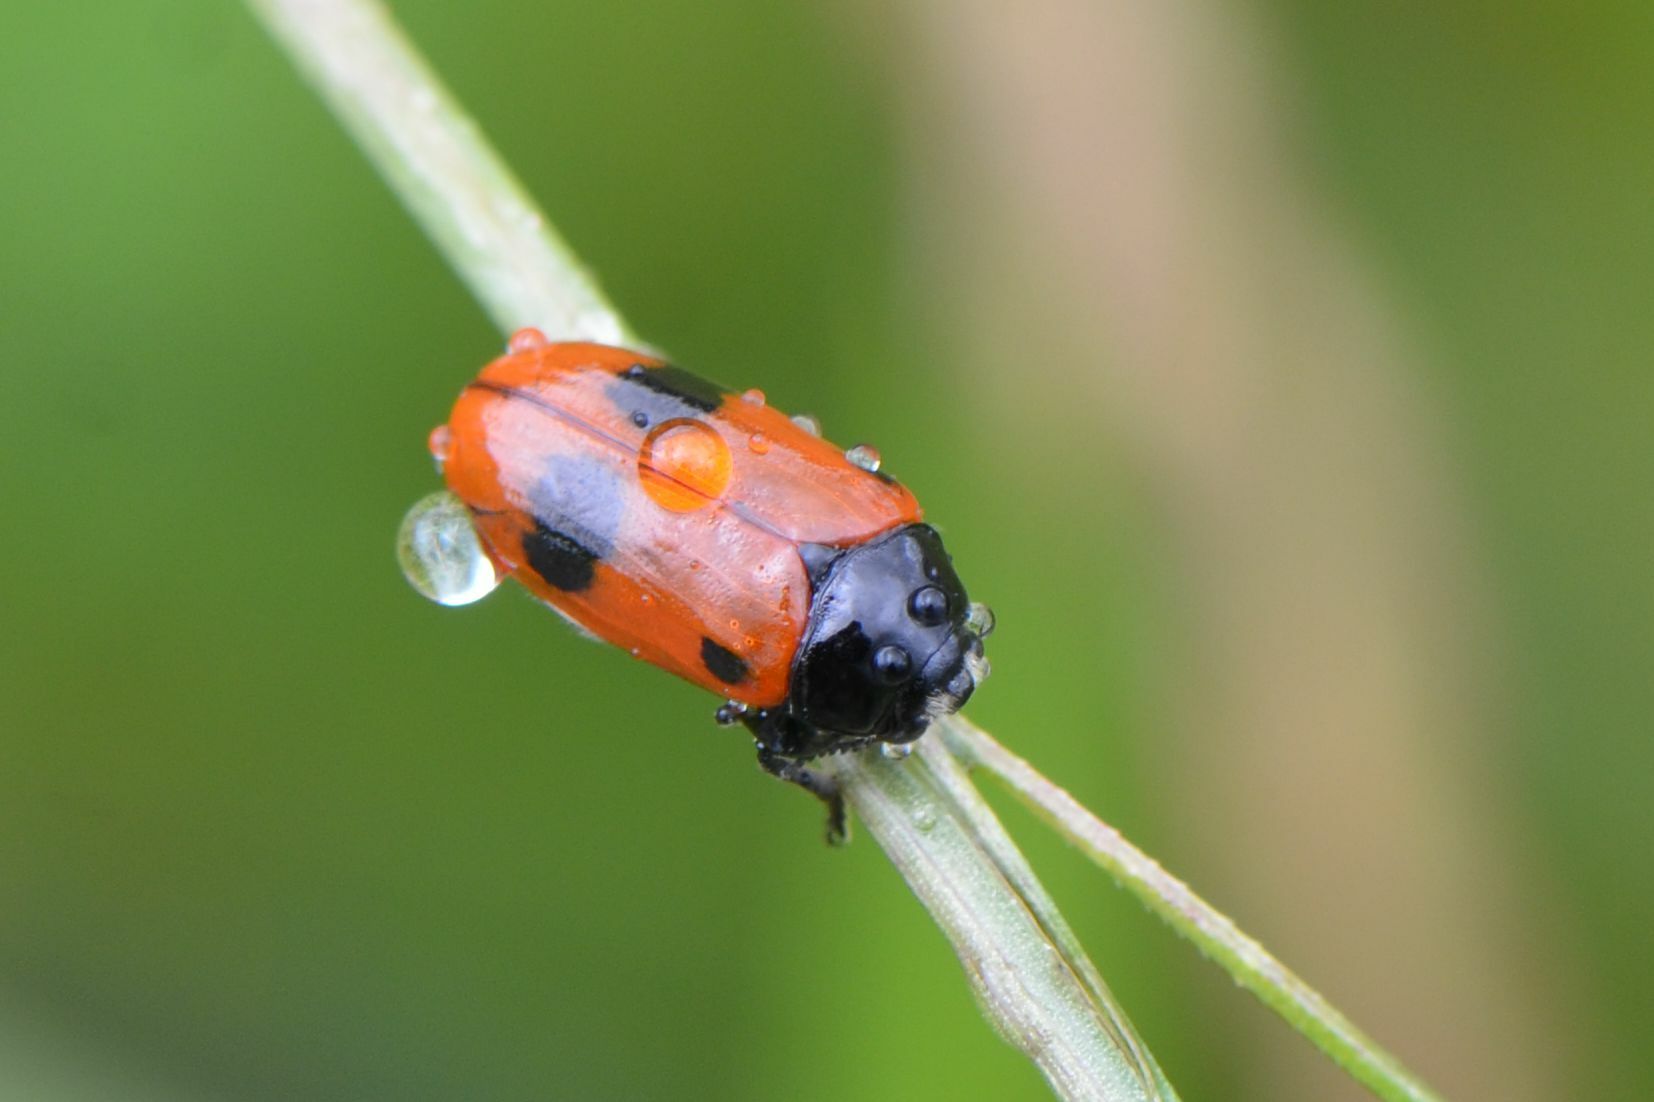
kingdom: Animalia
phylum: Arthropoda
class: Insecta
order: Coleoptera
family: Chrysomelidae
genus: Clytra
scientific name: Clytra laeviuscula
